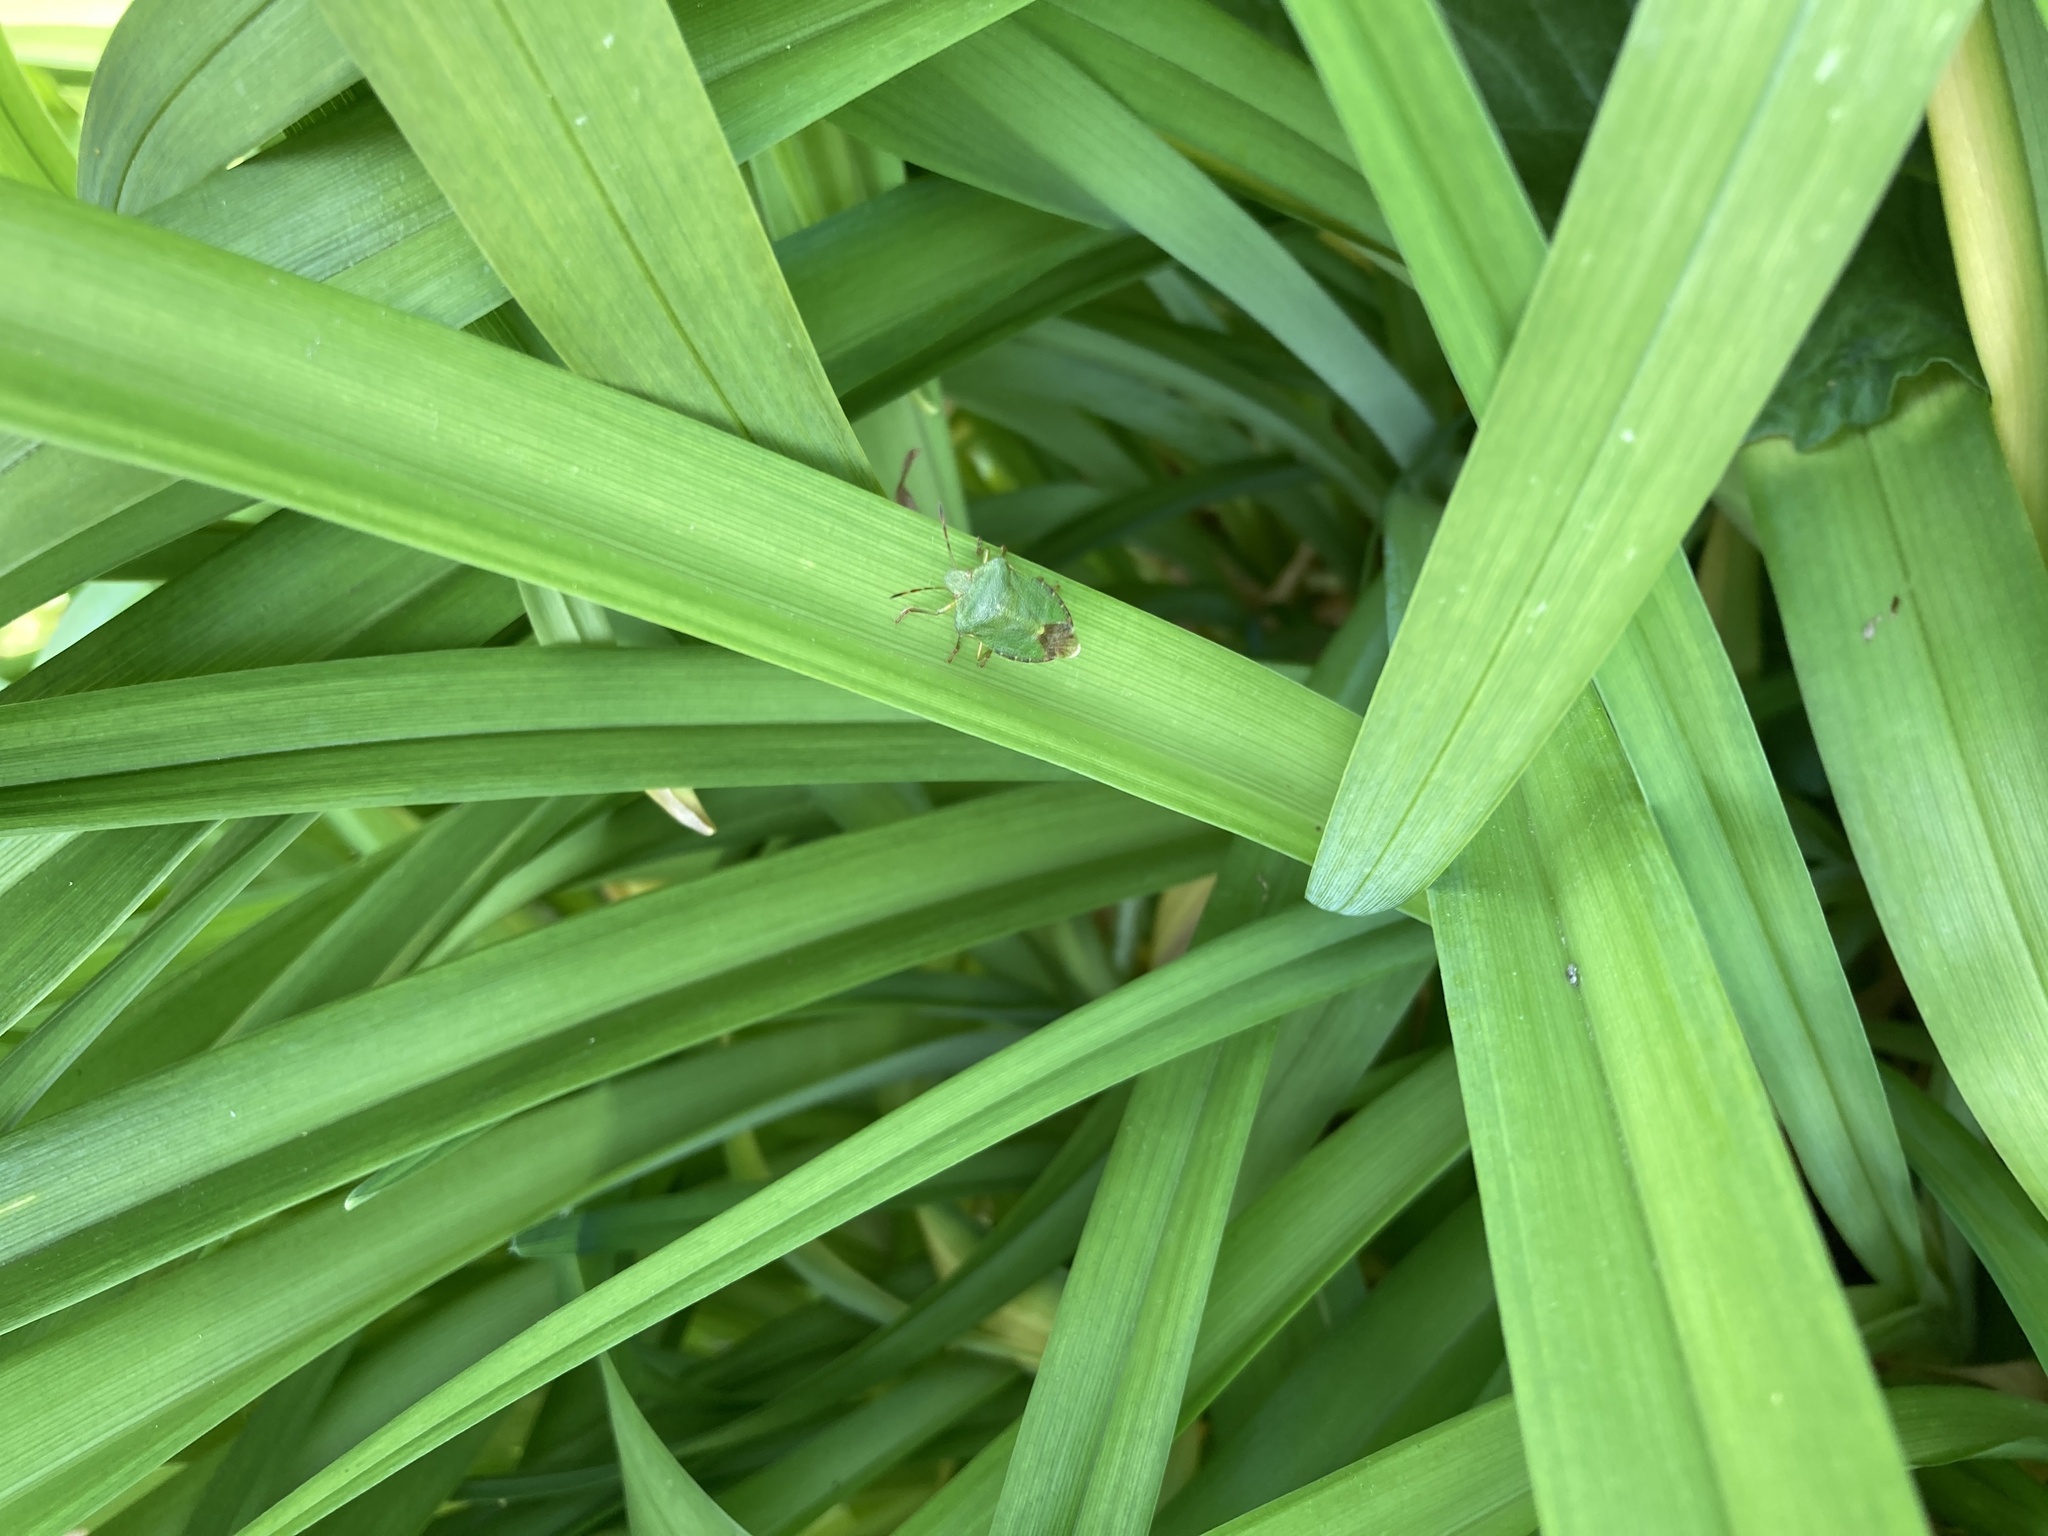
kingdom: Animalia
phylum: Arthropoda
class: Insecta
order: Hemiptera
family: Pentatomidae
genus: Palomena
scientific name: Palomena prasina
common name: Green shieldbug
